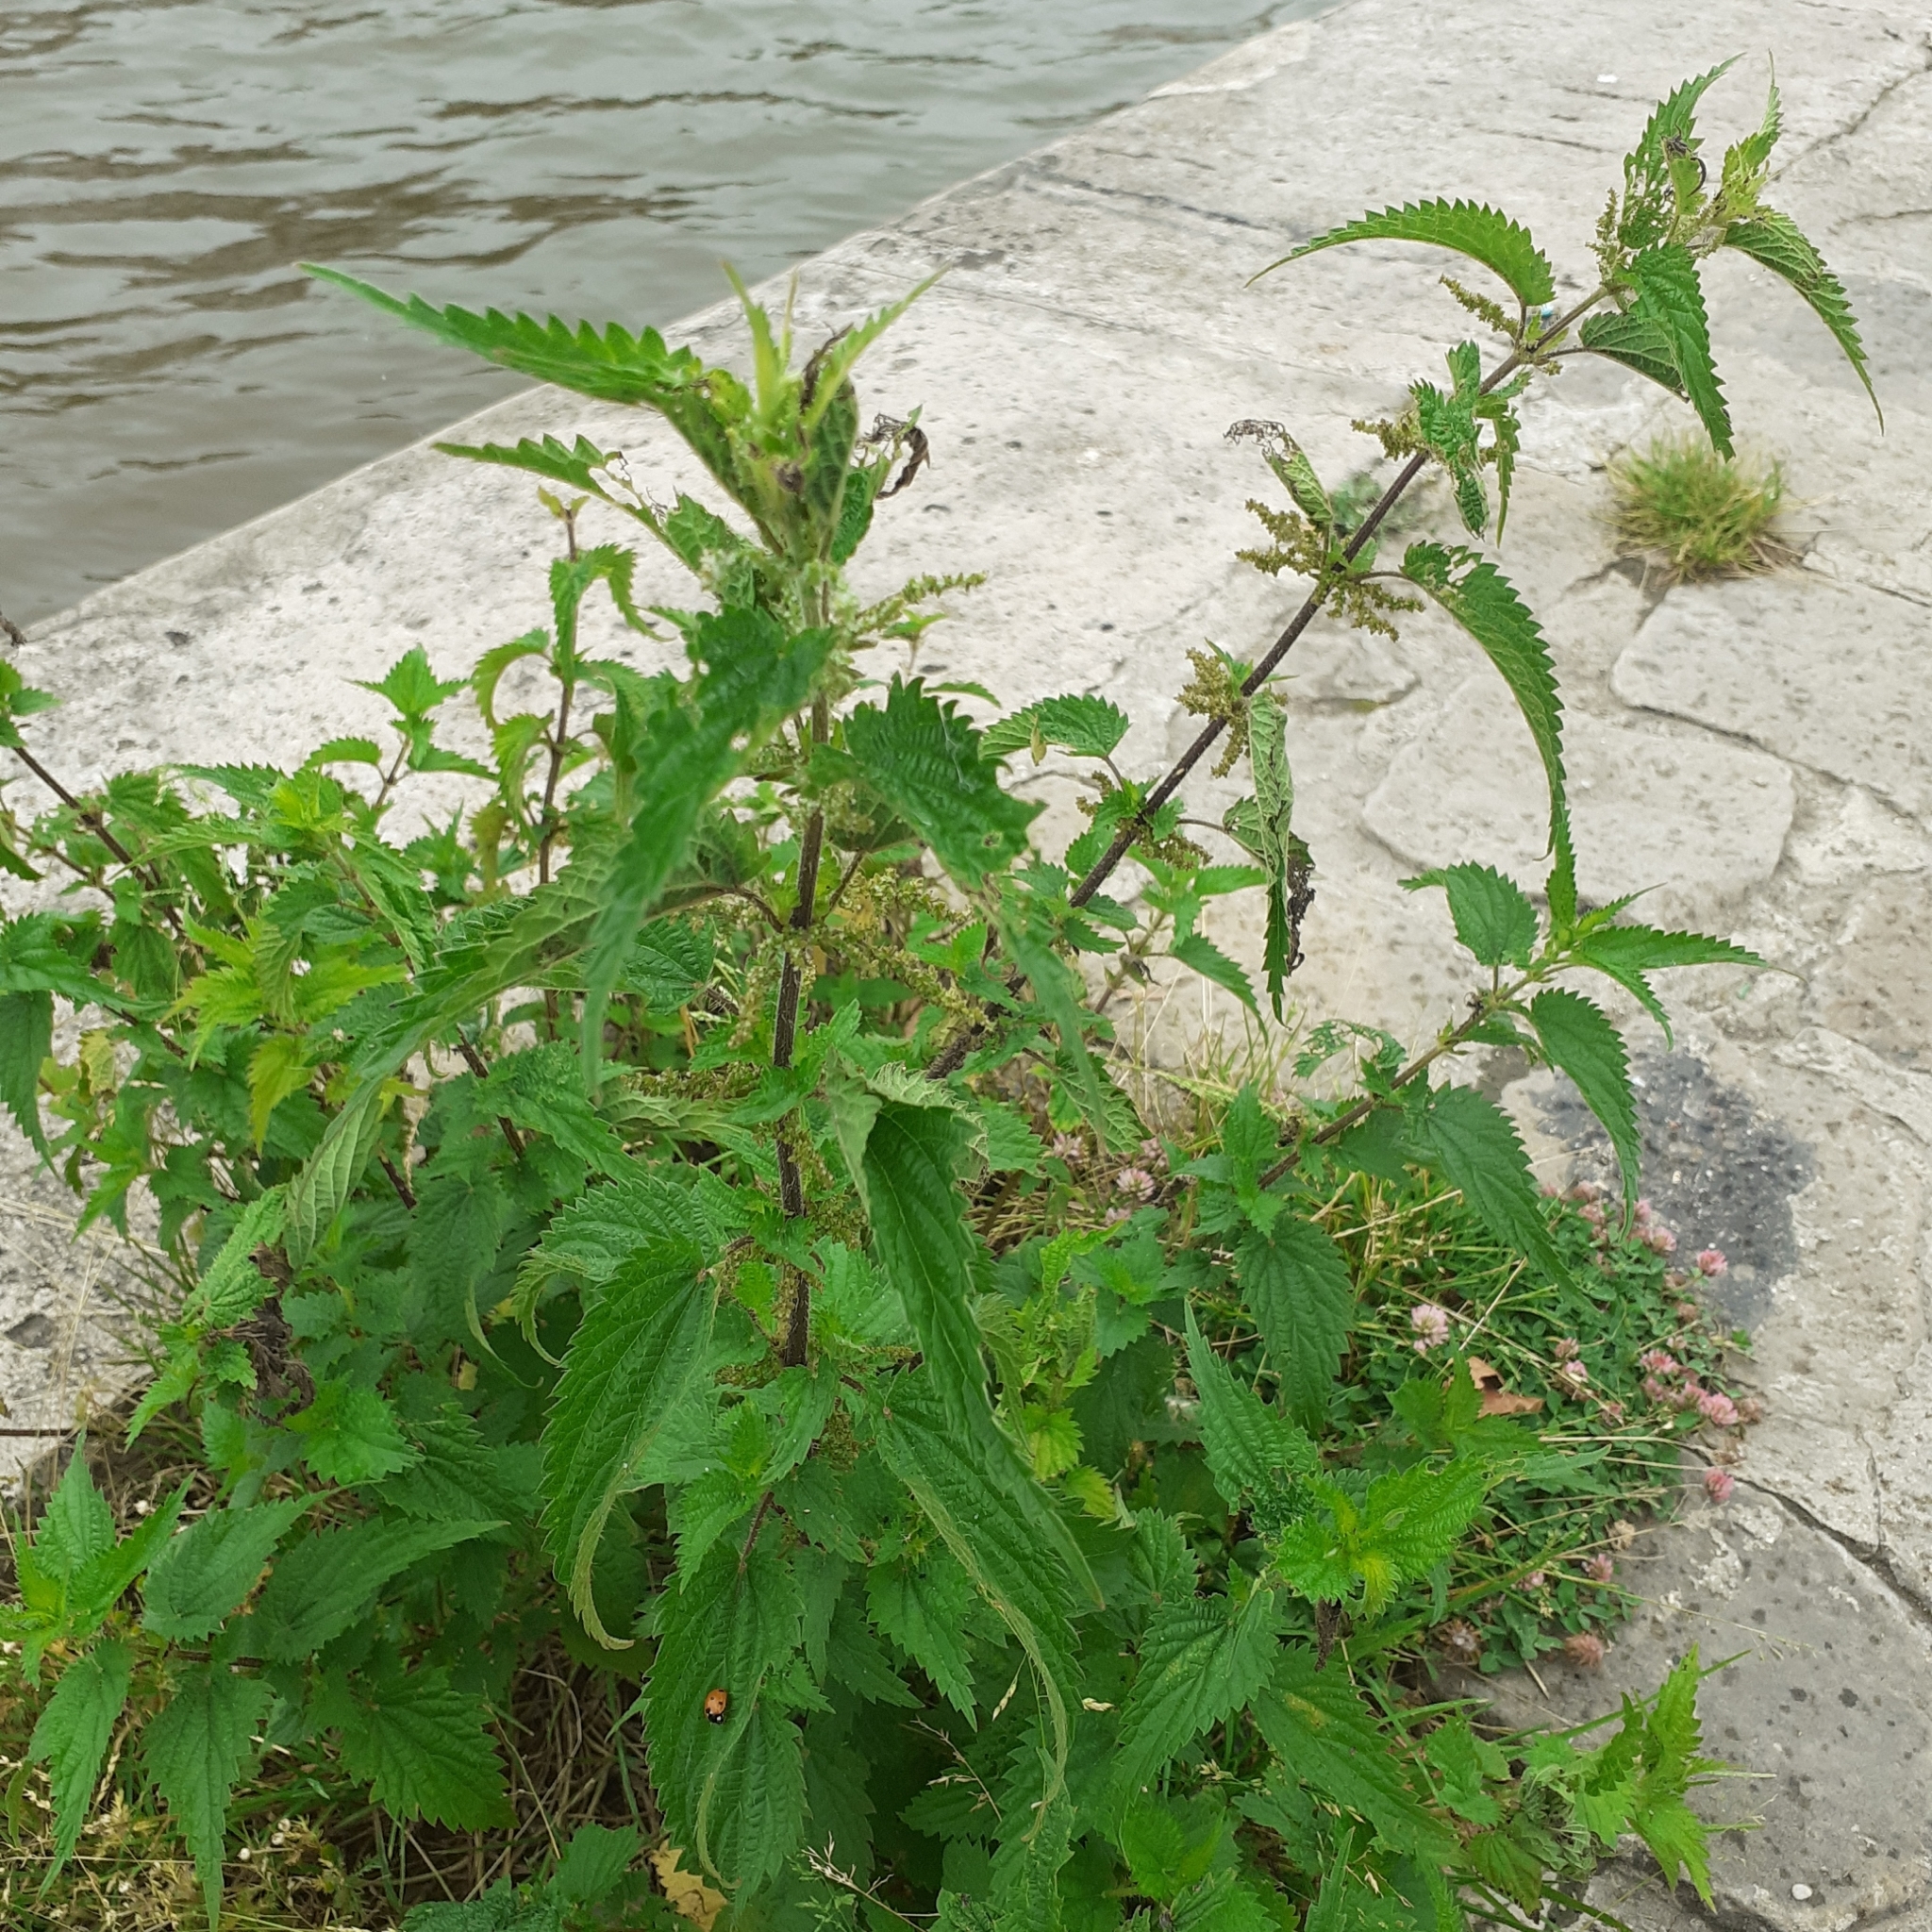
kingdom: Plantae
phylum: Tracheophyta
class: Magnoliopsida
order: Rosales
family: Urticaceae
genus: Urtica
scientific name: Urtica dioica
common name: Common nettle
